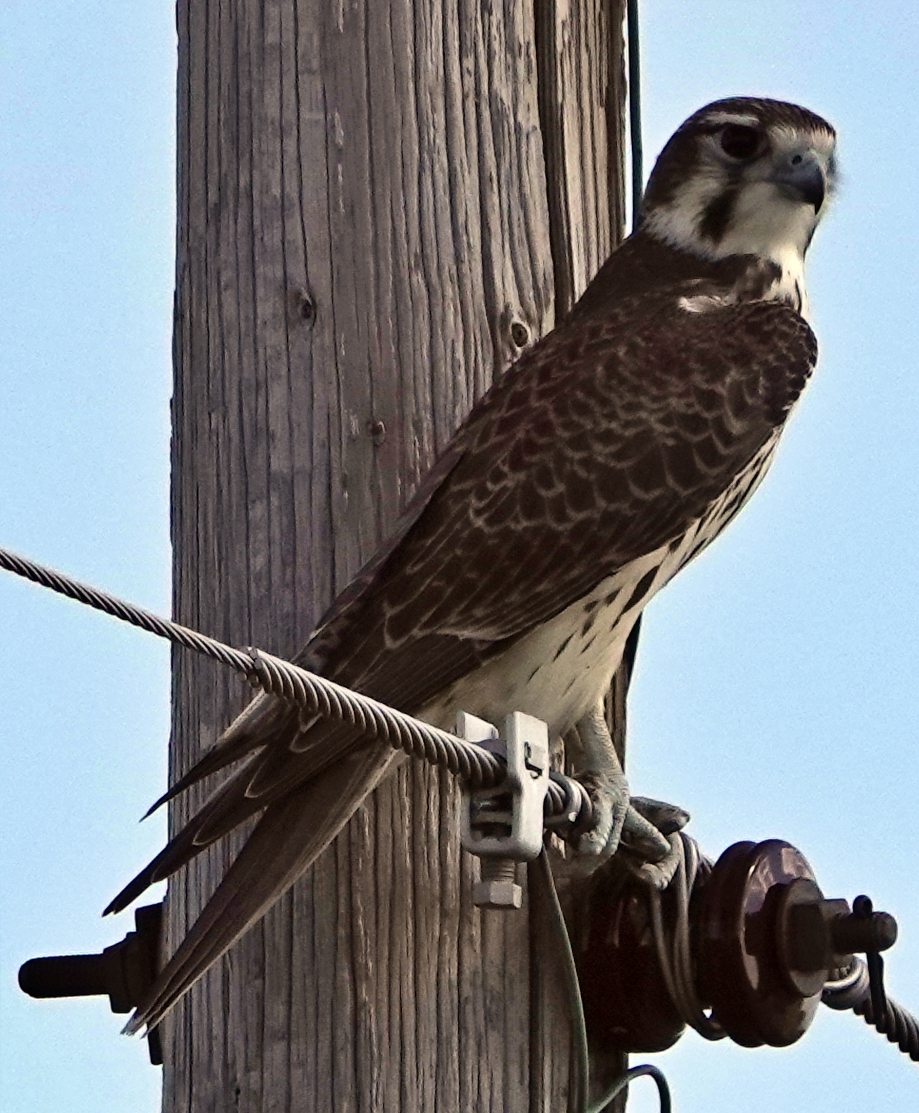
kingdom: Animalia
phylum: Chordata
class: Aves
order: Falconiformes
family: Falconidae
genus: Falco
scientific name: Falco mexicanus
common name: Prairie falcon
